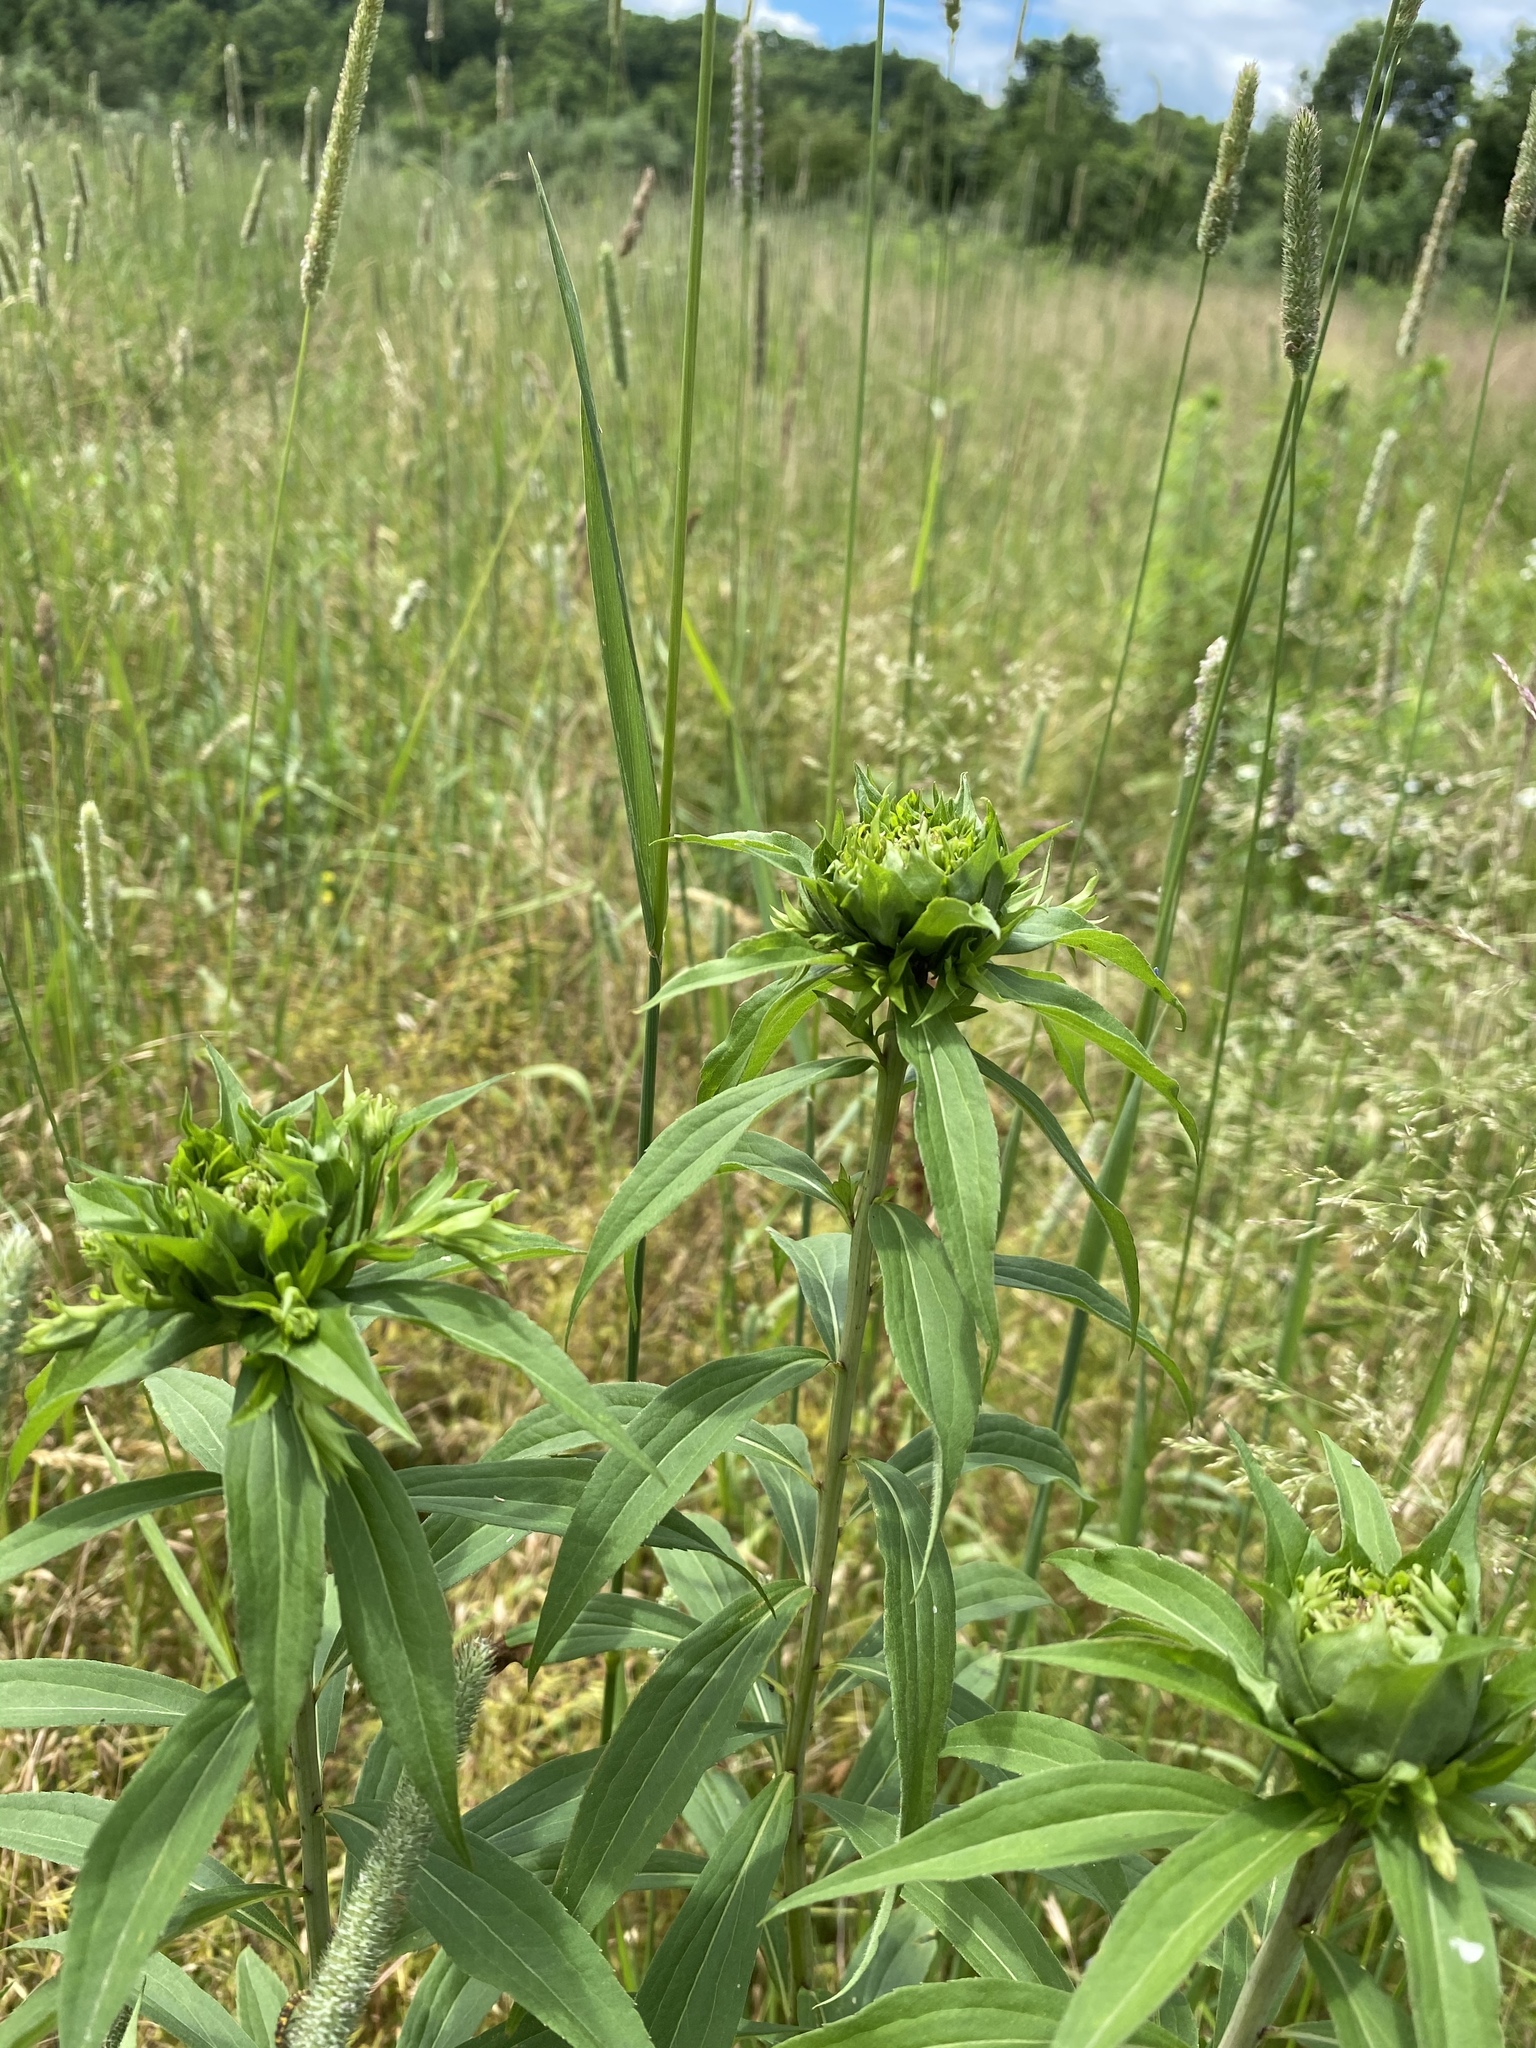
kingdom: Animalia
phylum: Arthropoda
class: Insecta
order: Diptera
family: Cecidomyiidae
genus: Rhopalomyia
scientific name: Rhopalomyia capitata
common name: Giant goldenrod bunch gall midge
